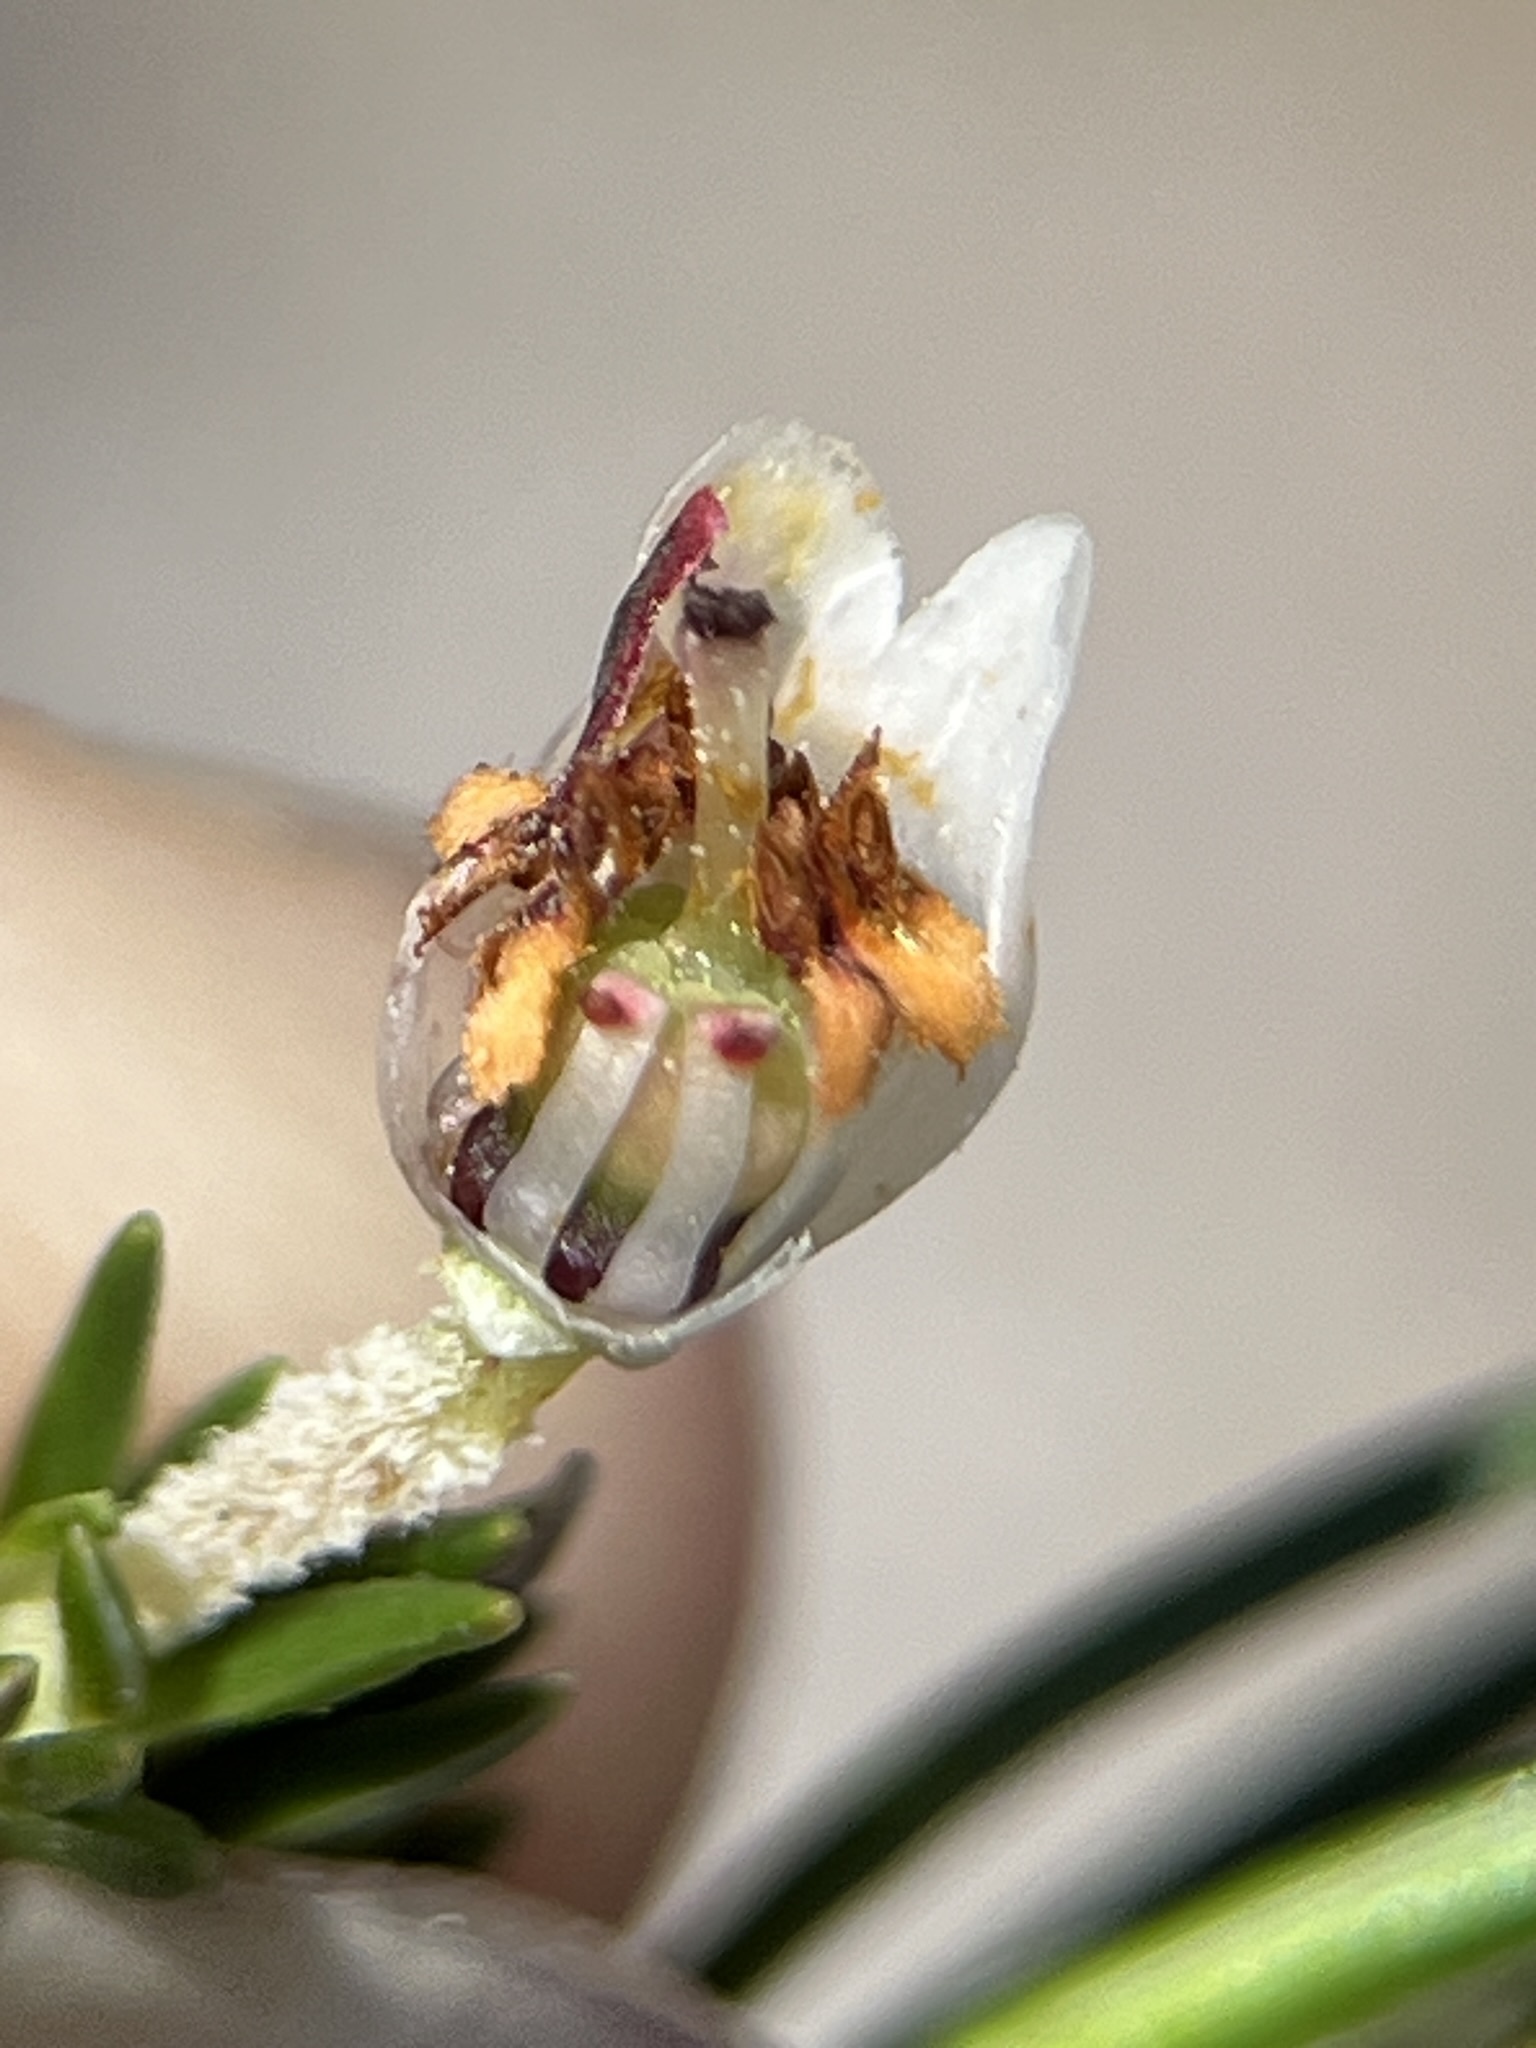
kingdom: Plantae
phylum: Tracheophyta
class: Magnoliopsida
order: Ericales
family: Ericaceae
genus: Erica
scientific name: Erica triflora
